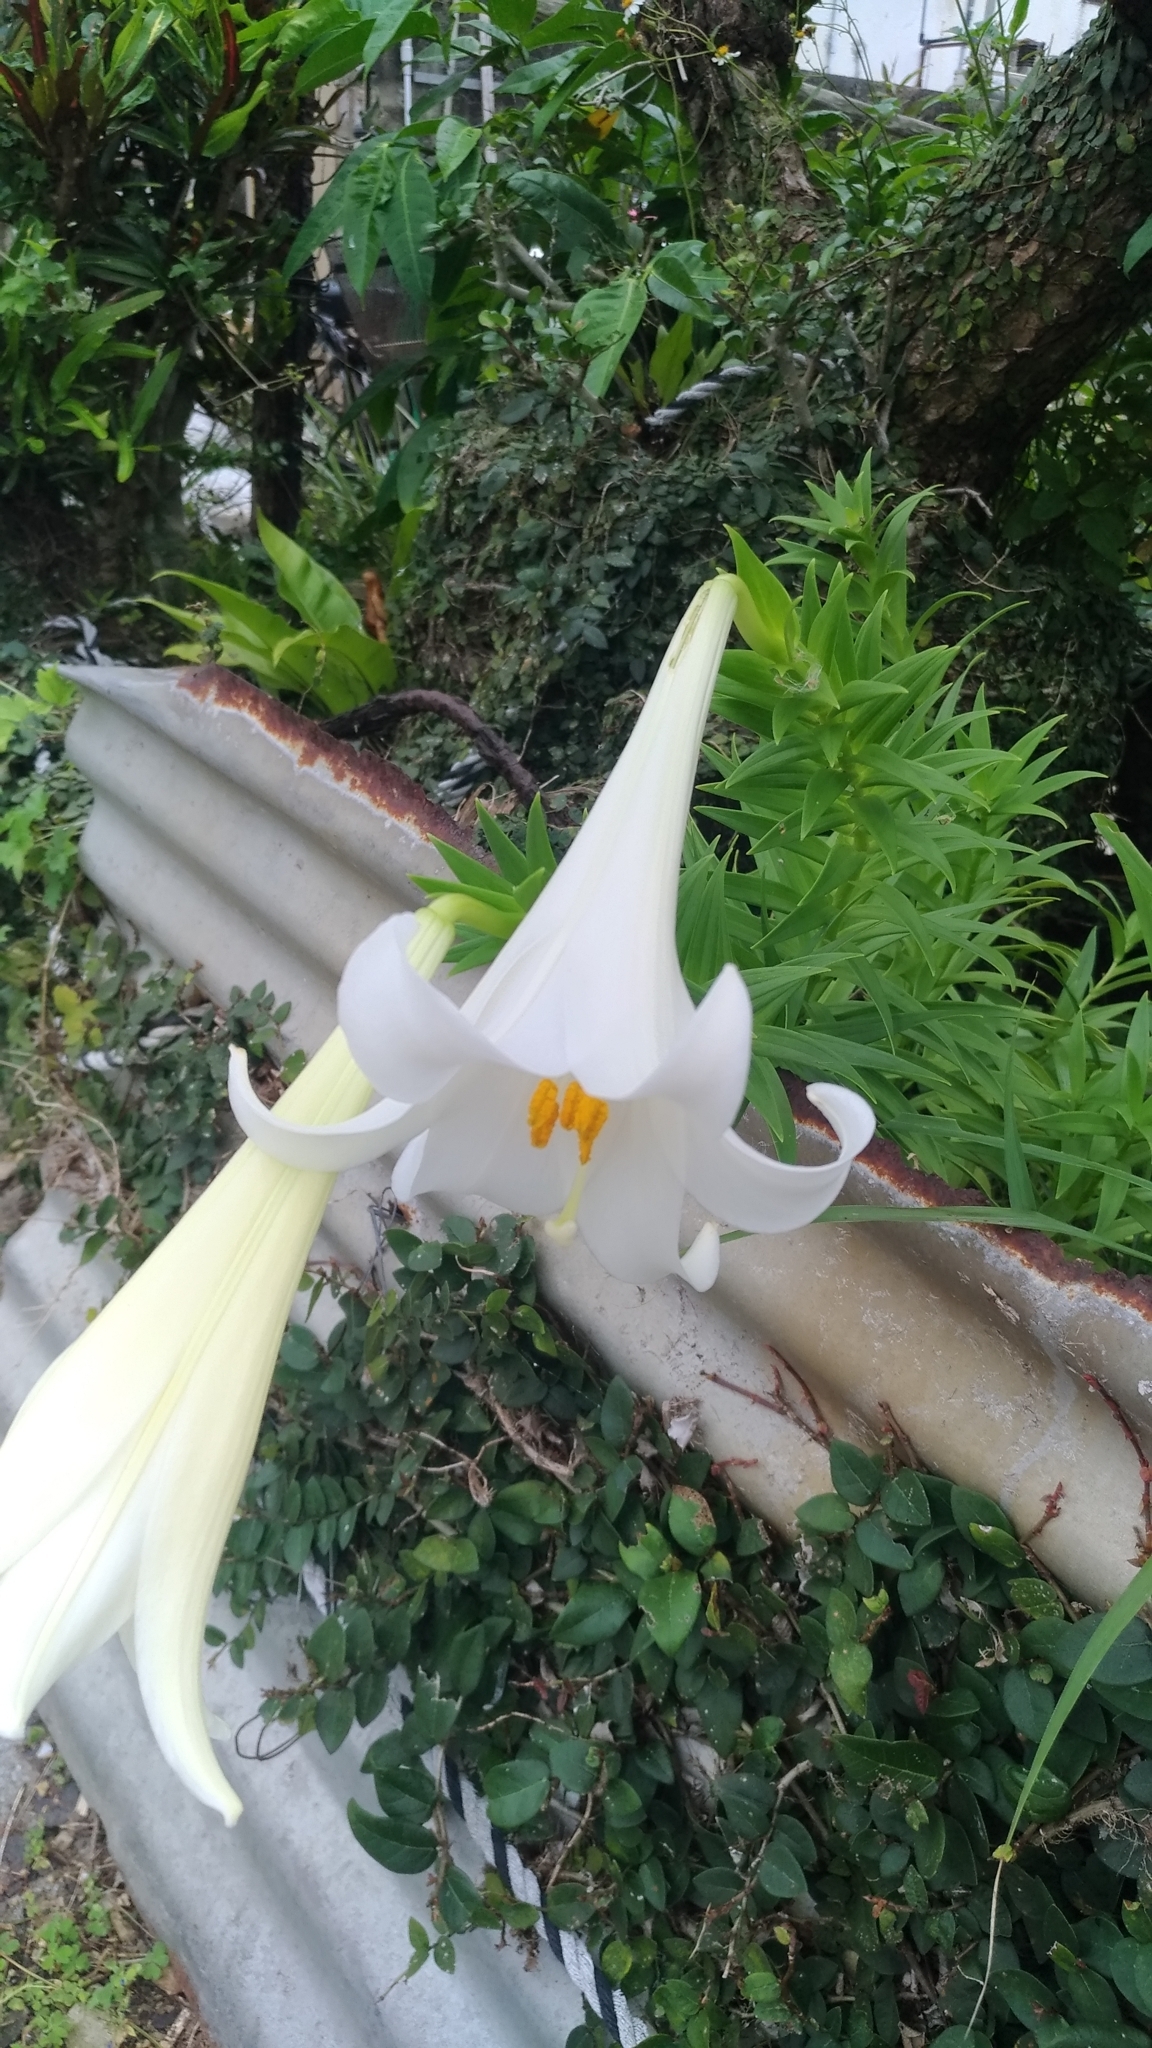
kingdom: Plantae
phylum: Tracheophyta
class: Liliopsida
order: Liliales
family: Liliaceae
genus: Lilium
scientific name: Lilium longiflorum
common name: Easter lily
